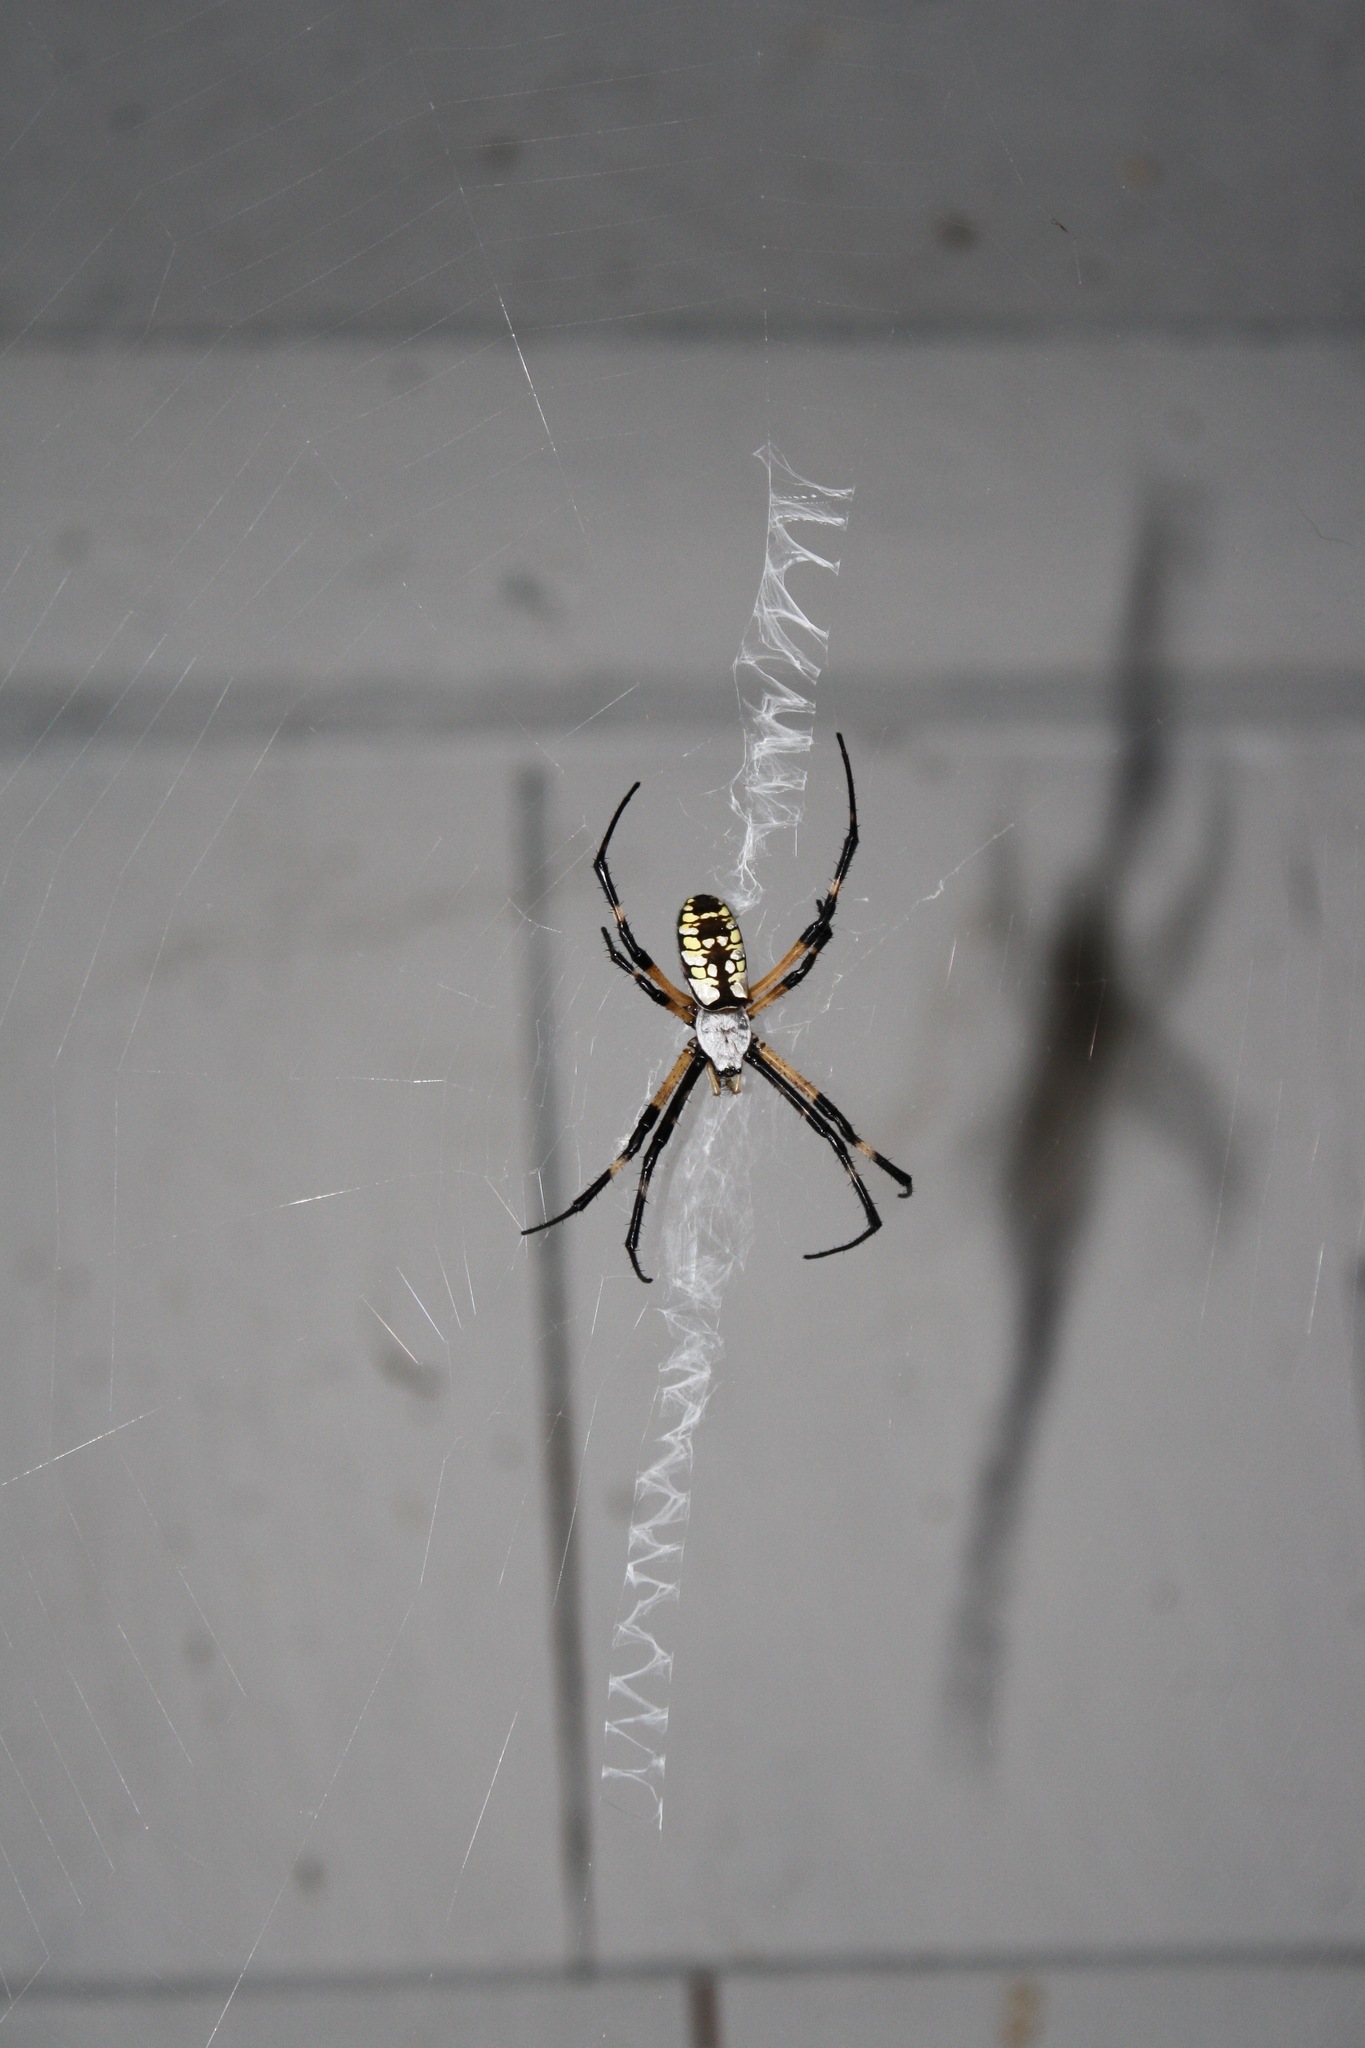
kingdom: Animalia
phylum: Arthropoda
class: Arachnida
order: Araneae
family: Araneidae
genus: Argiope
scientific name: Argiope aurantia
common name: Orb weavers
